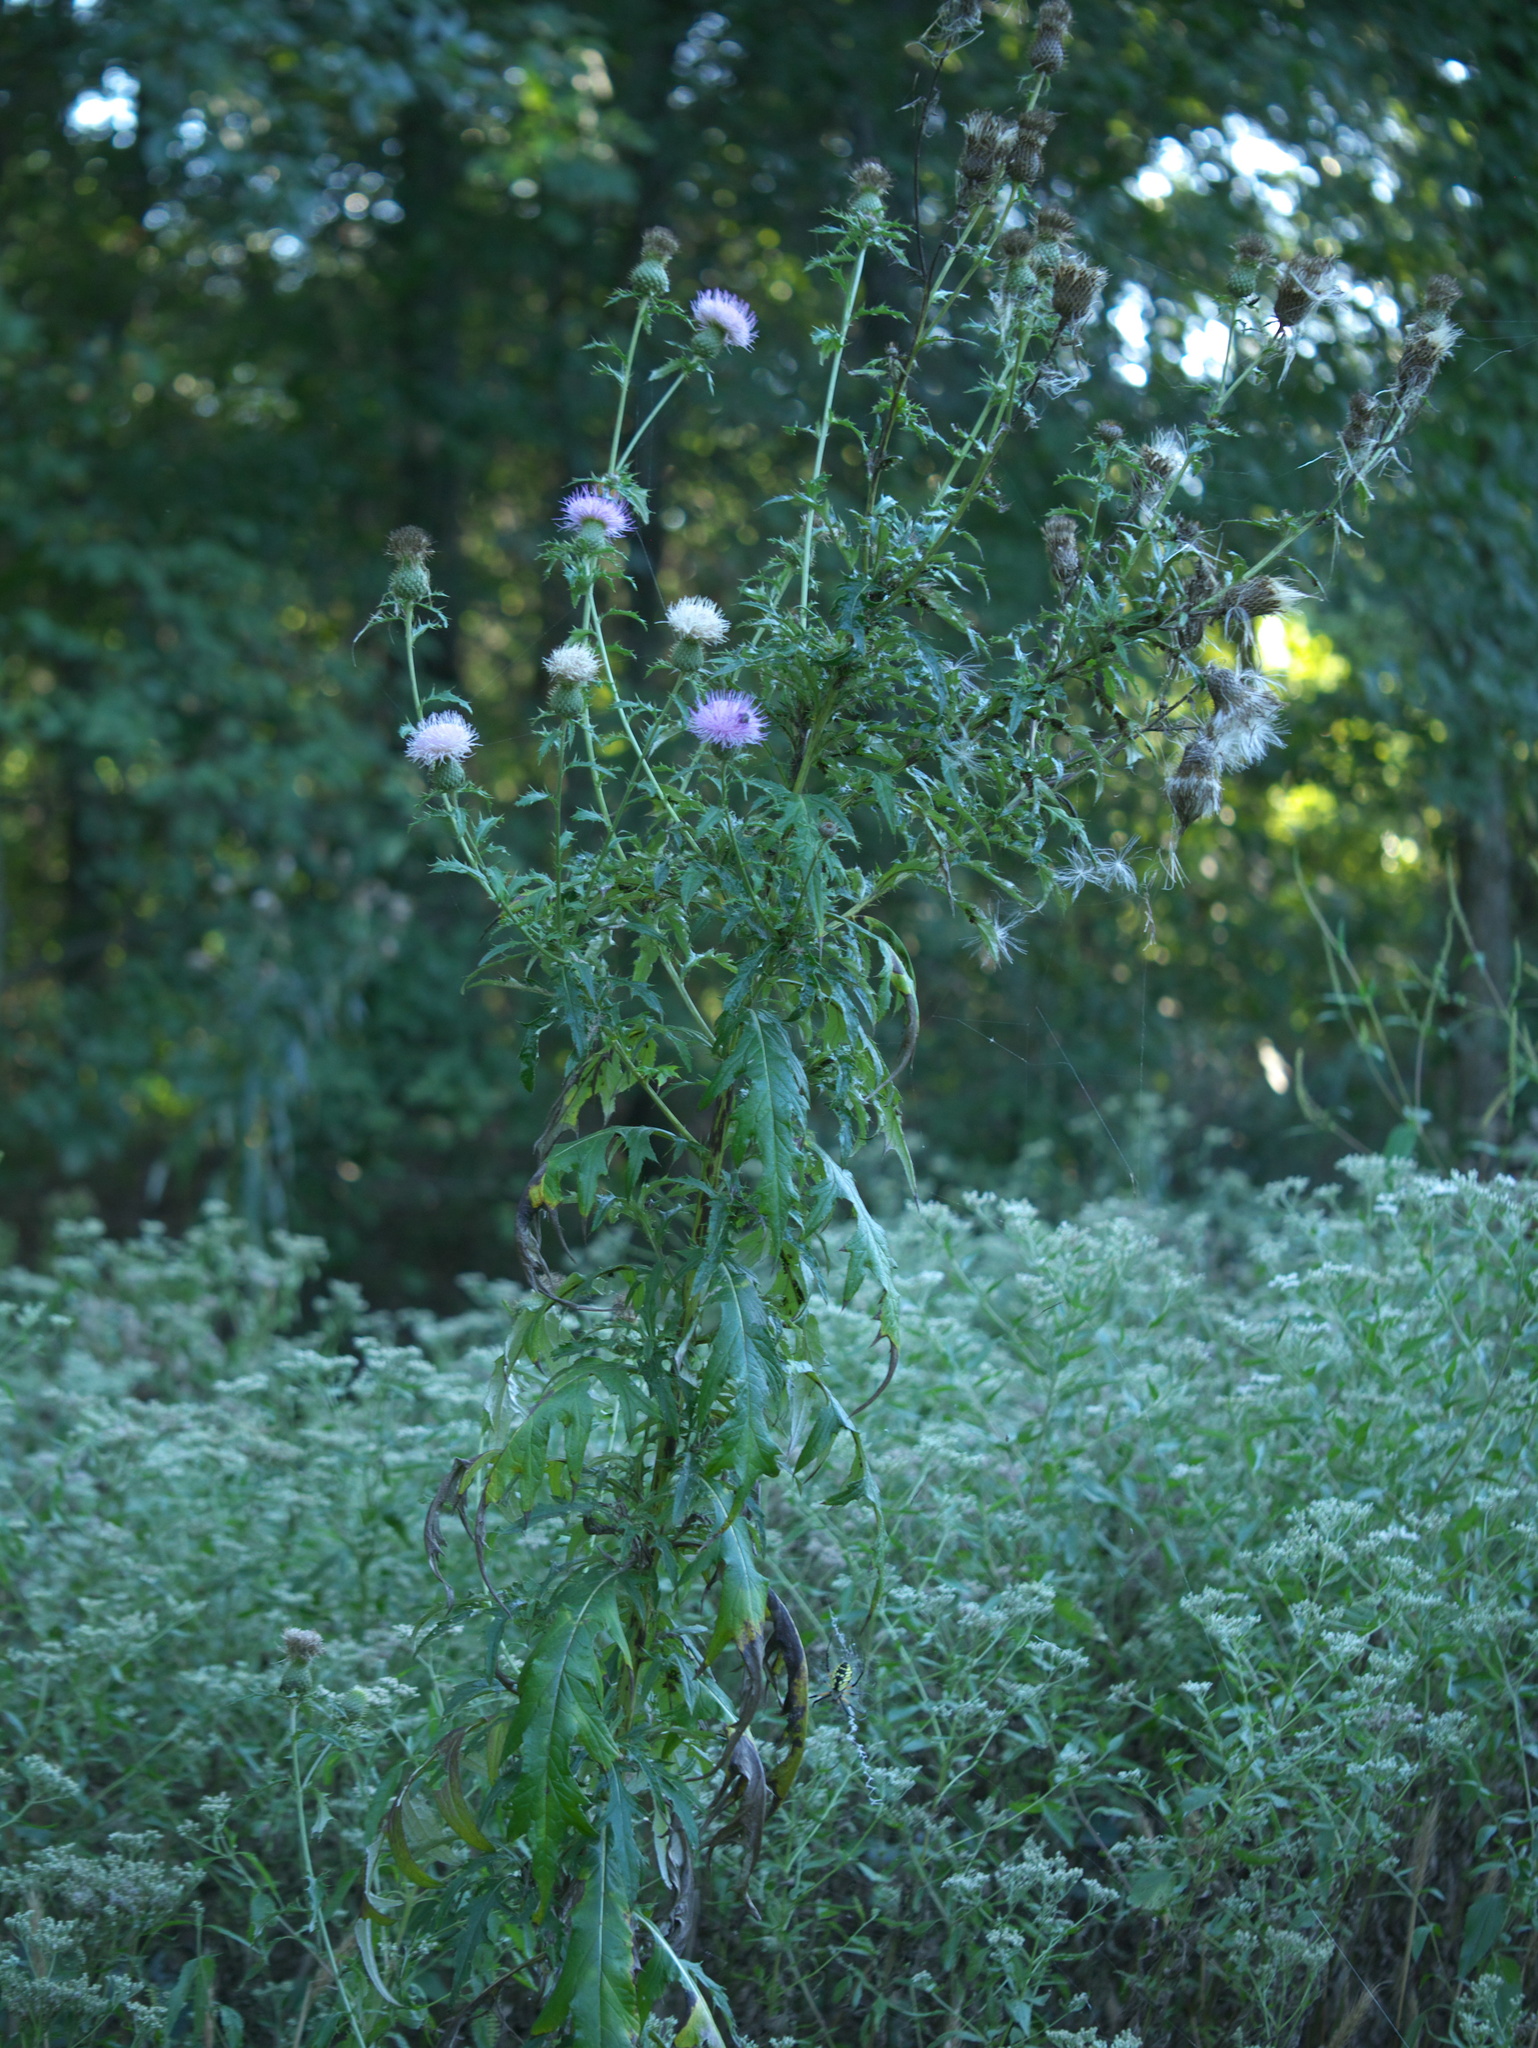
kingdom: Animalia
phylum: Arthropoda
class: Insecta
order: Hemiptera
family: Membracidae
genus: Entylia
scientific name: Entylia carinata
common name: Keeled treehopper
